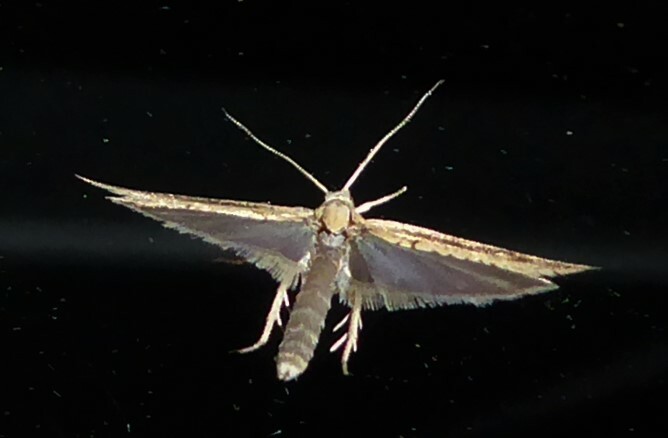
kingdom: Animalia
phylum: Arthropoda
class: Insecta
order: Lepidoptera
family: Tortricidae
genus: Bactra
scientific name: Bactra noteraula
